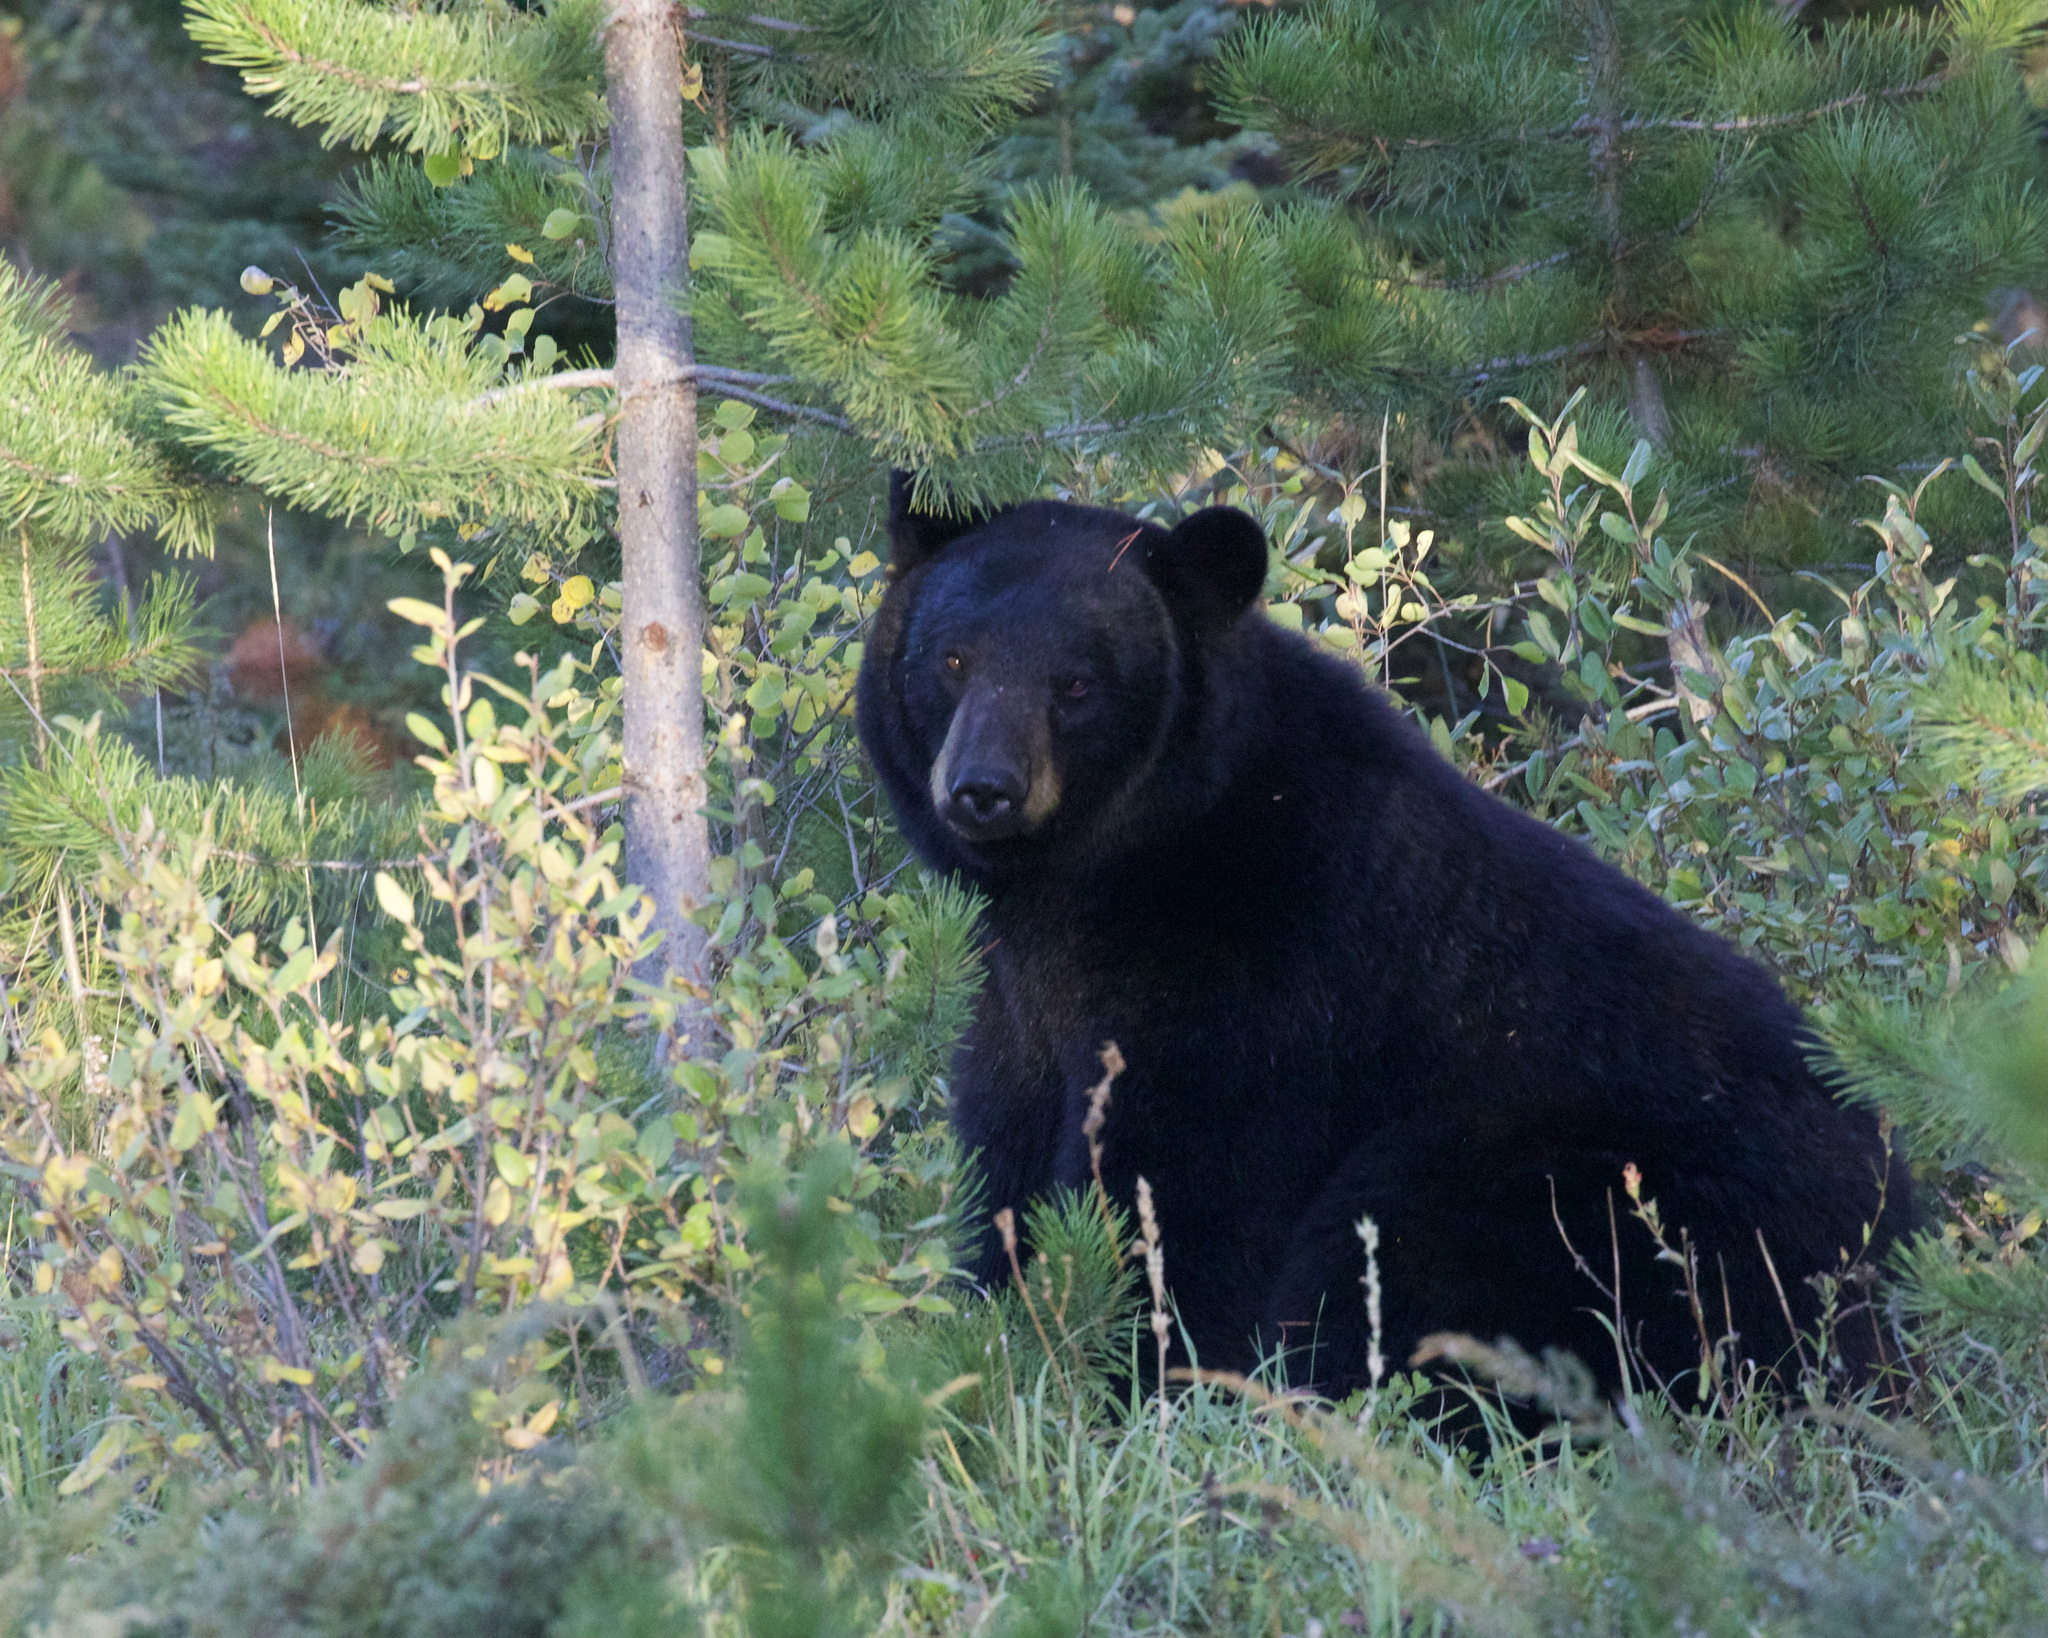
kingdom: Animalia
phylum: Chordata
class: Mammalia
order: Carnivora
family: Ursidae
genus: Ursus
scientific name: Ursus americanus
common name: American black bear
